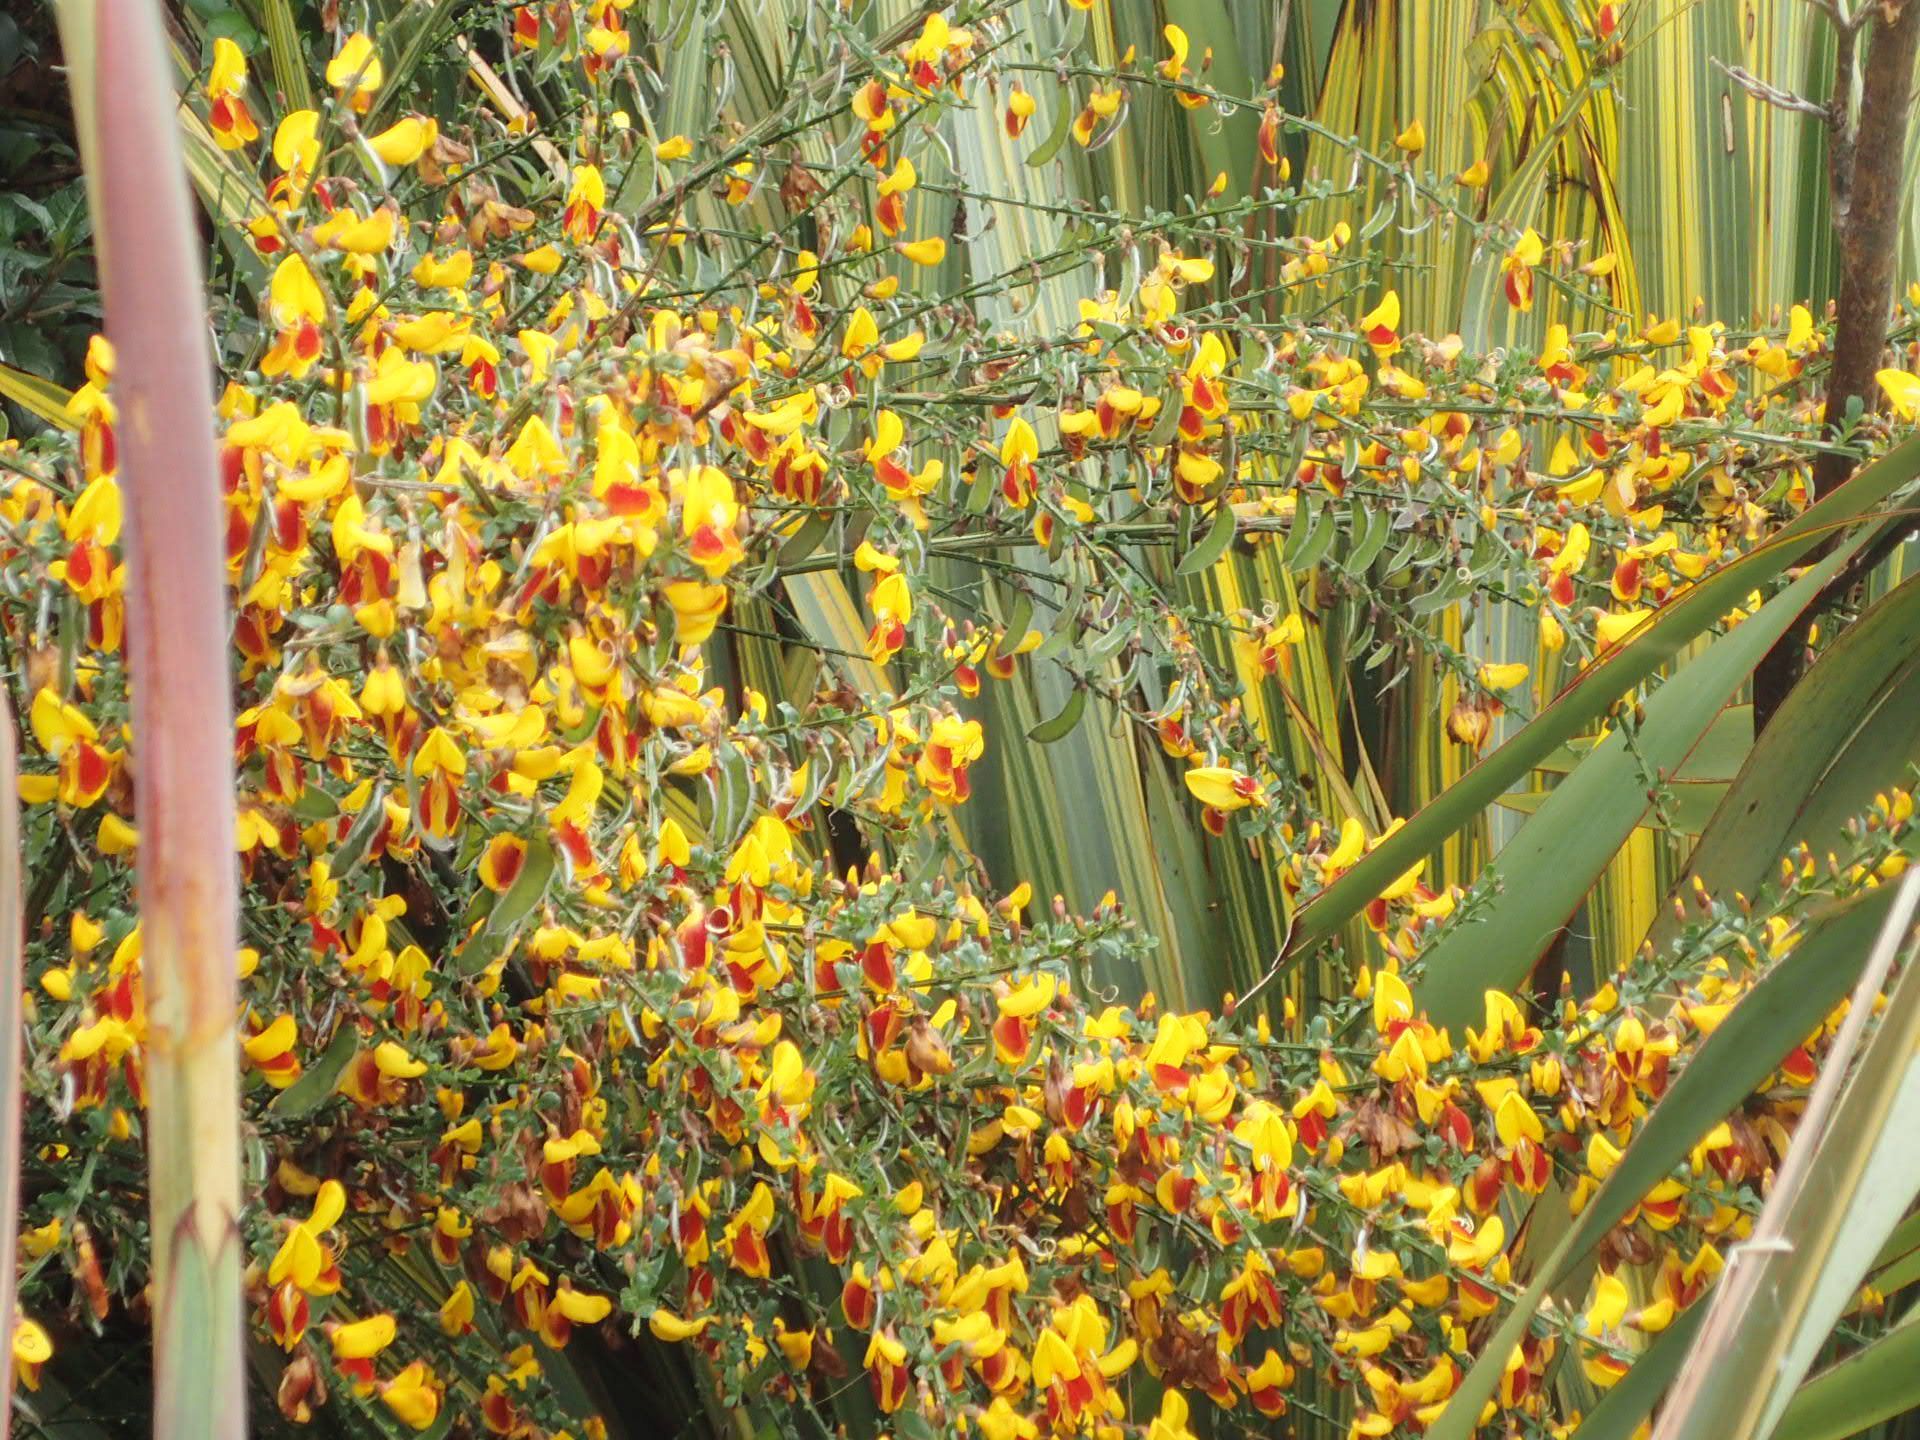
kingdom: Plantae
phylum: Tracheophyta
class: Magnoliopsida
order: Fabales
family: Fabaceae
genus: Cytisus
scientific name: Cytisus scoparius
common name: Scotch broom
